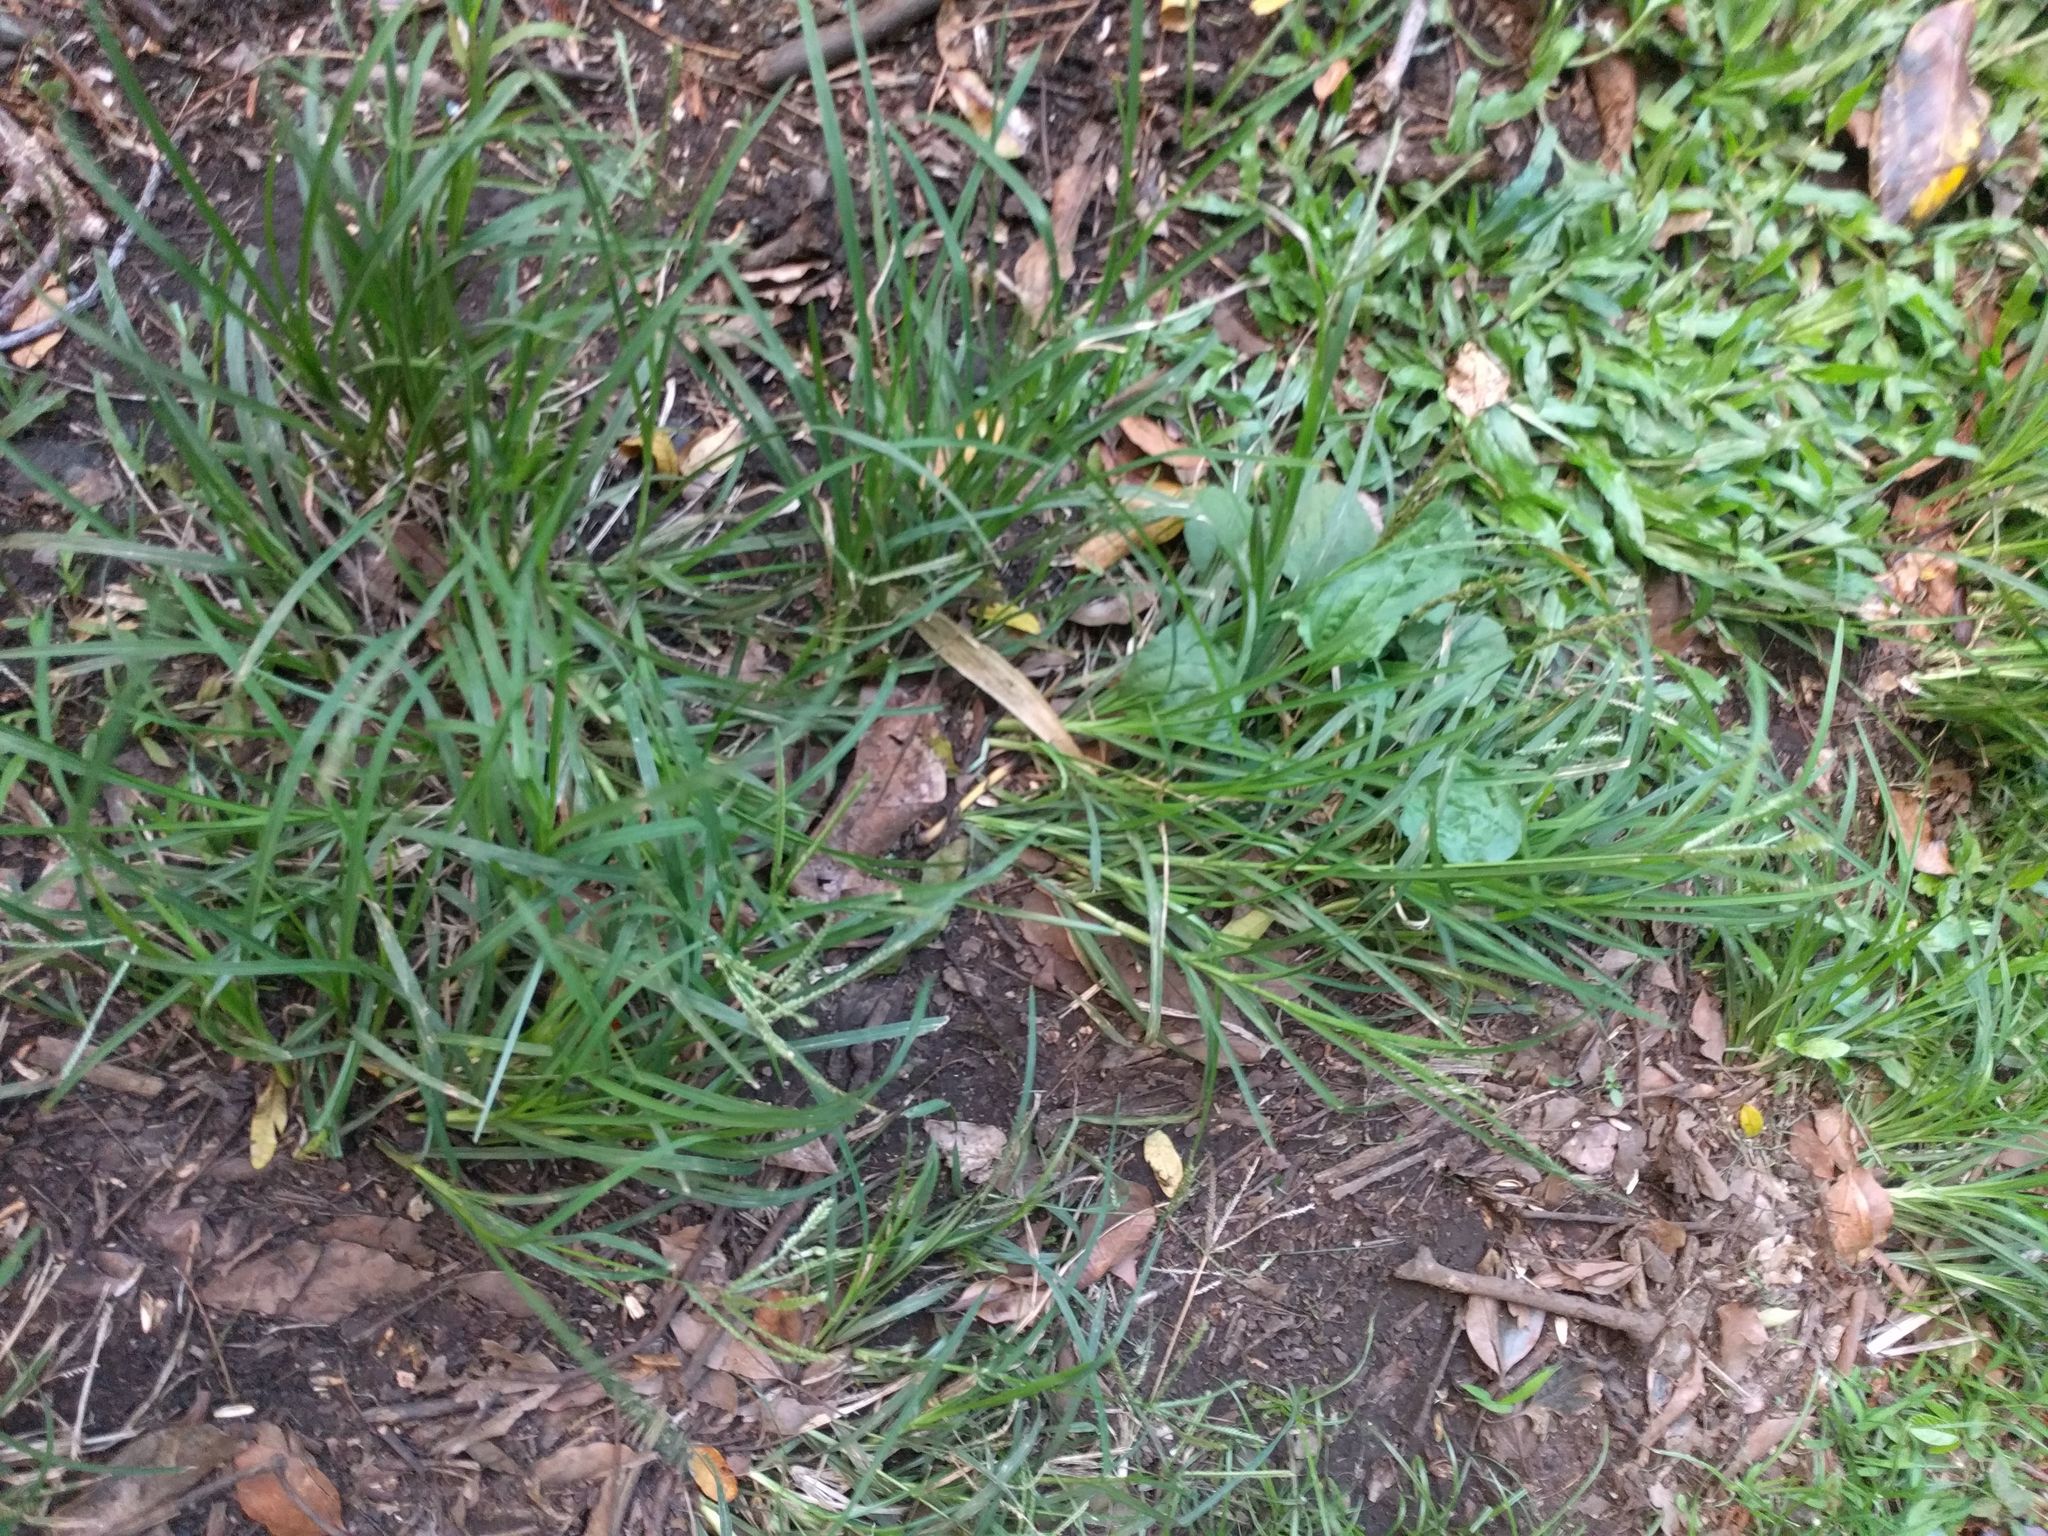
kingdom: Plantae
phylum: Tracheophyta
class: Liliopsida
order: Poales
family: Poaceae
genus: Eleusine
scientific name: Eleusine indica
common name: Yard-grass
